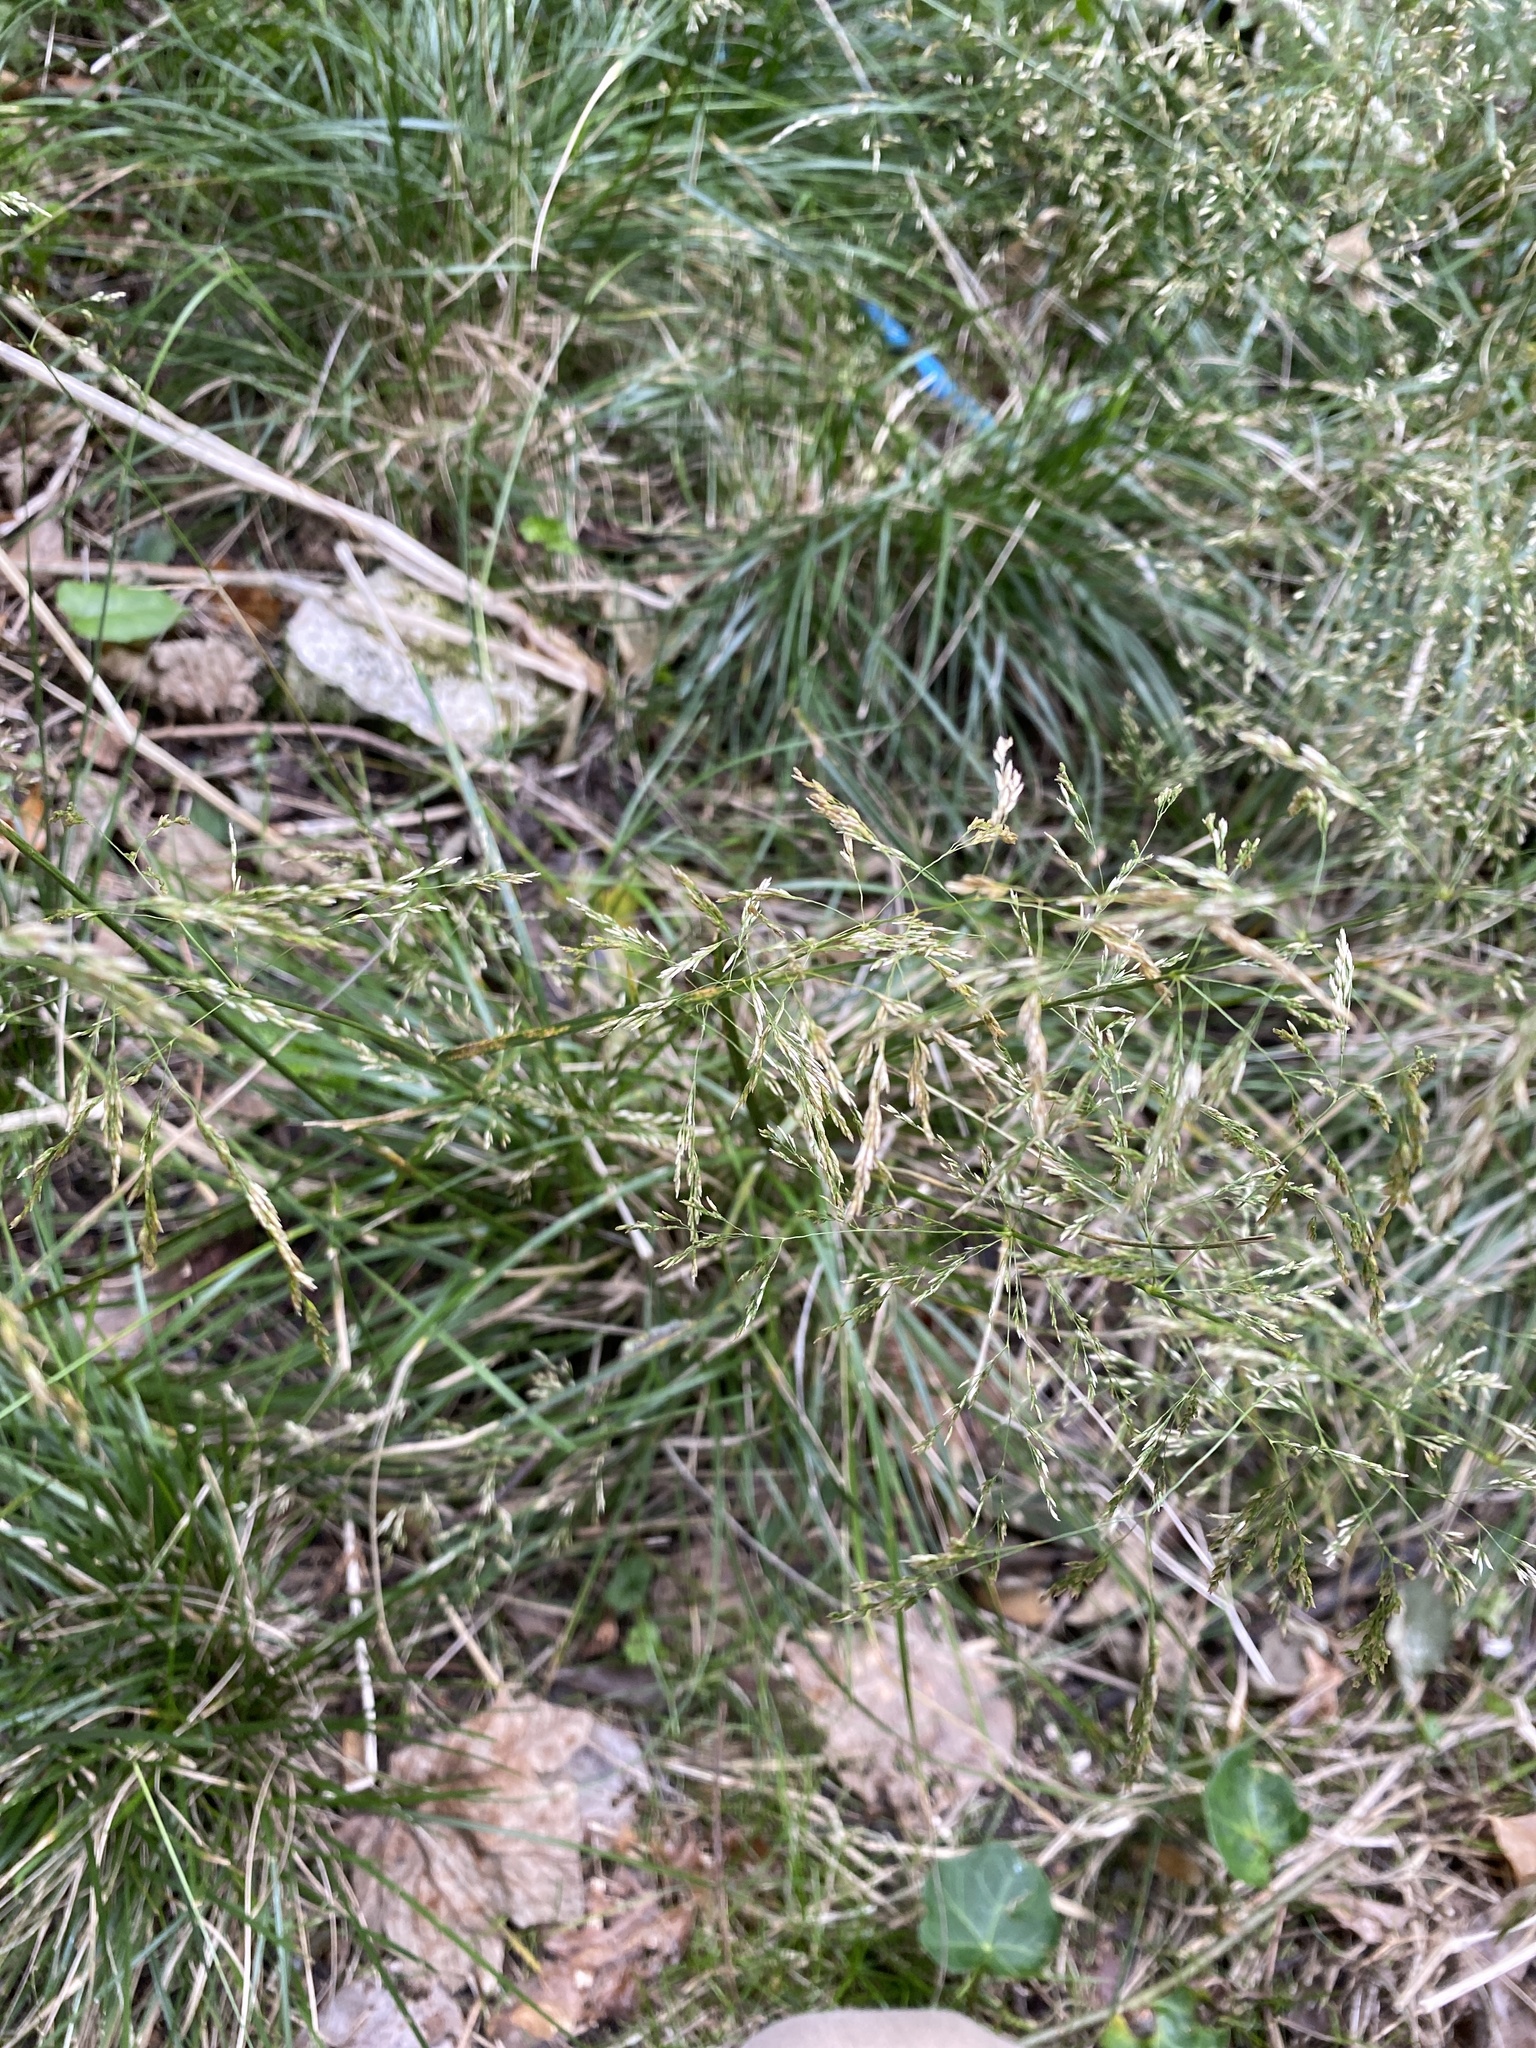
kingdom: Plantae
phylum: Tracheophyta
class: Liliopsida
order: Poales
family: Poaceae
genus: Deschampsia
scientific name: Deschampsia cespitosa
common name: Tufted hair-grass
